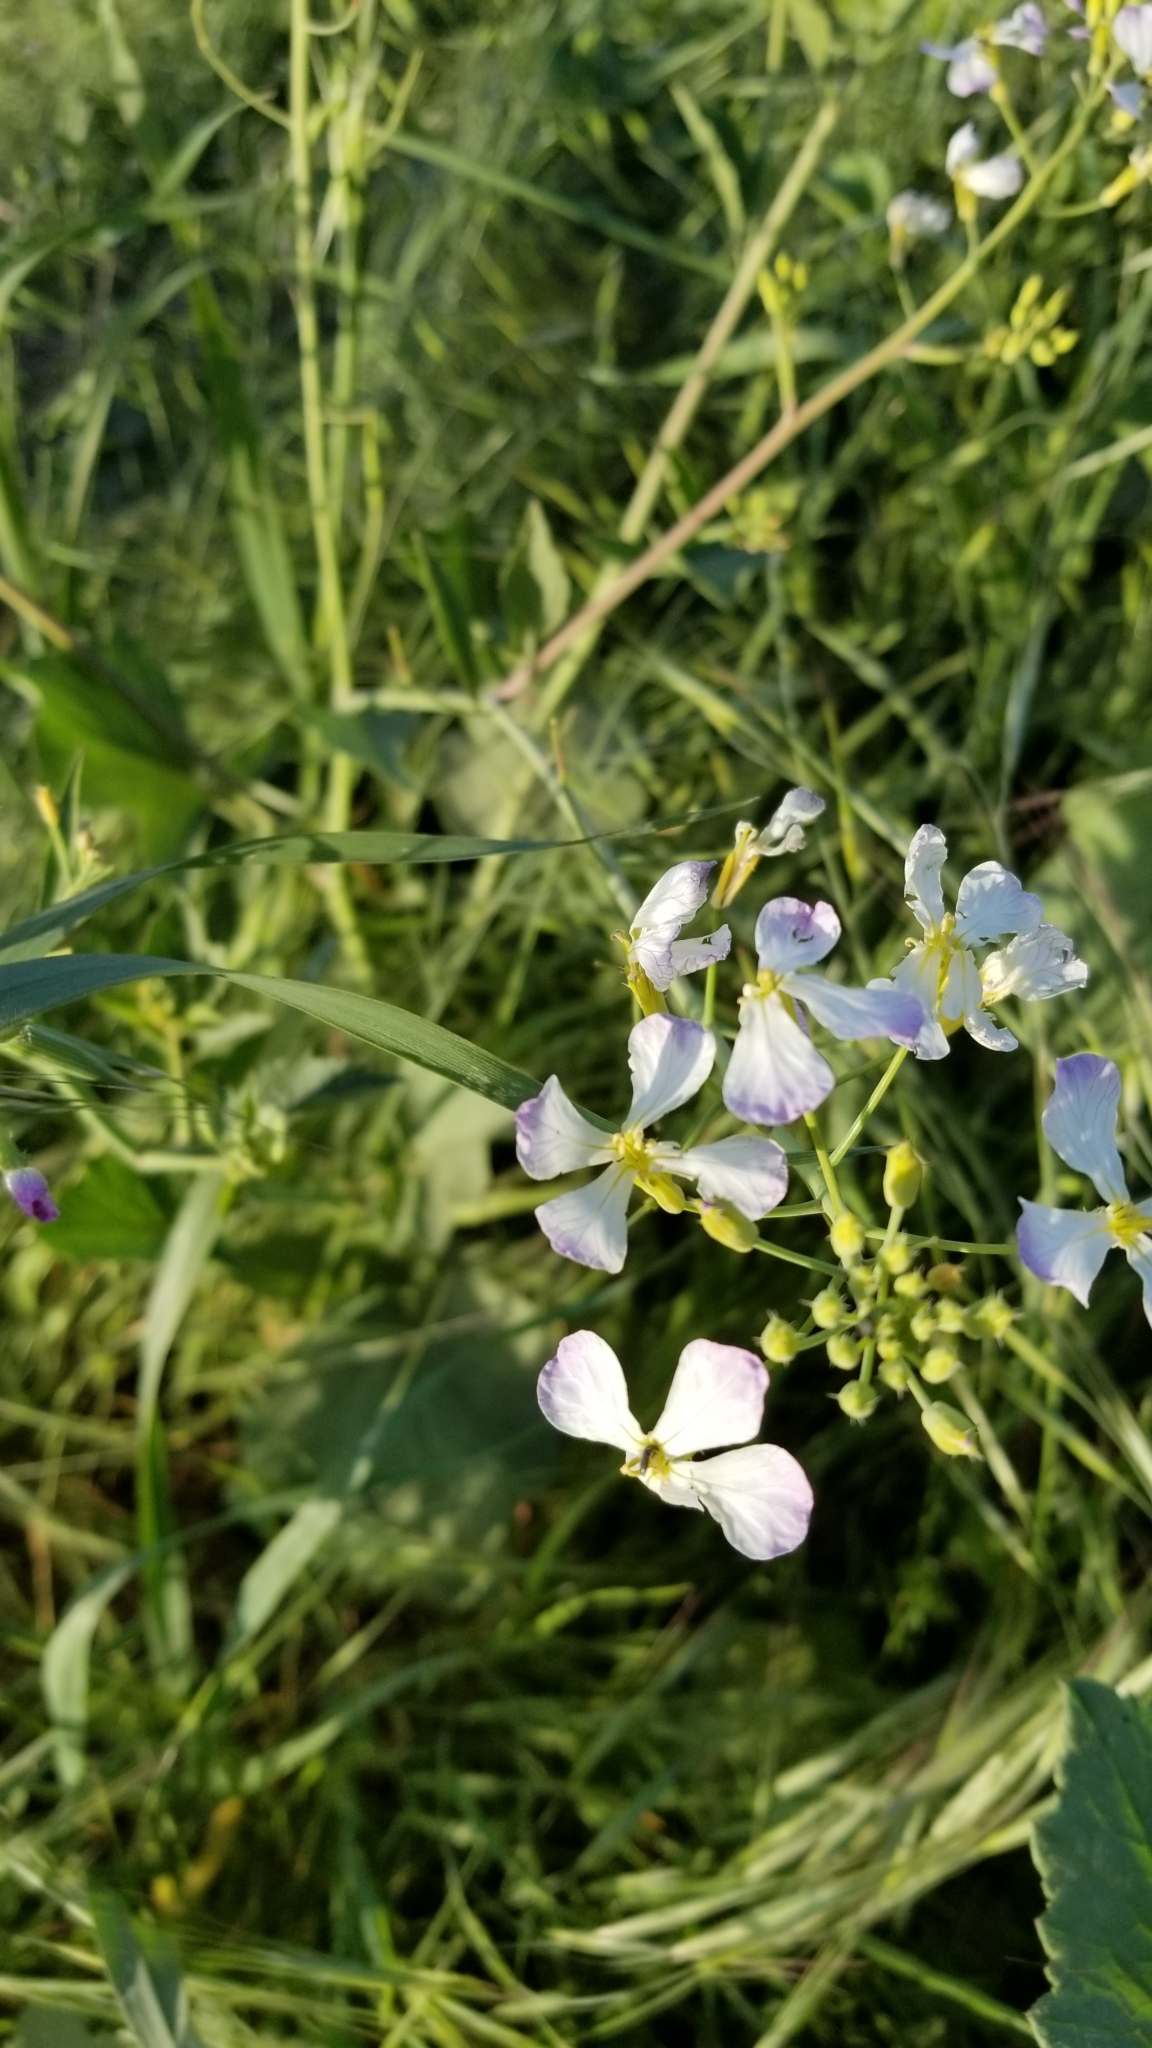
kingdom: Plantae
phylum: Tracheophyta
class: Magnoliopsida
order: Brassicales
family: Brassicaceae
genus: Raphanus
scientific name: Raphanus sativus
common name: Cultivated radish
